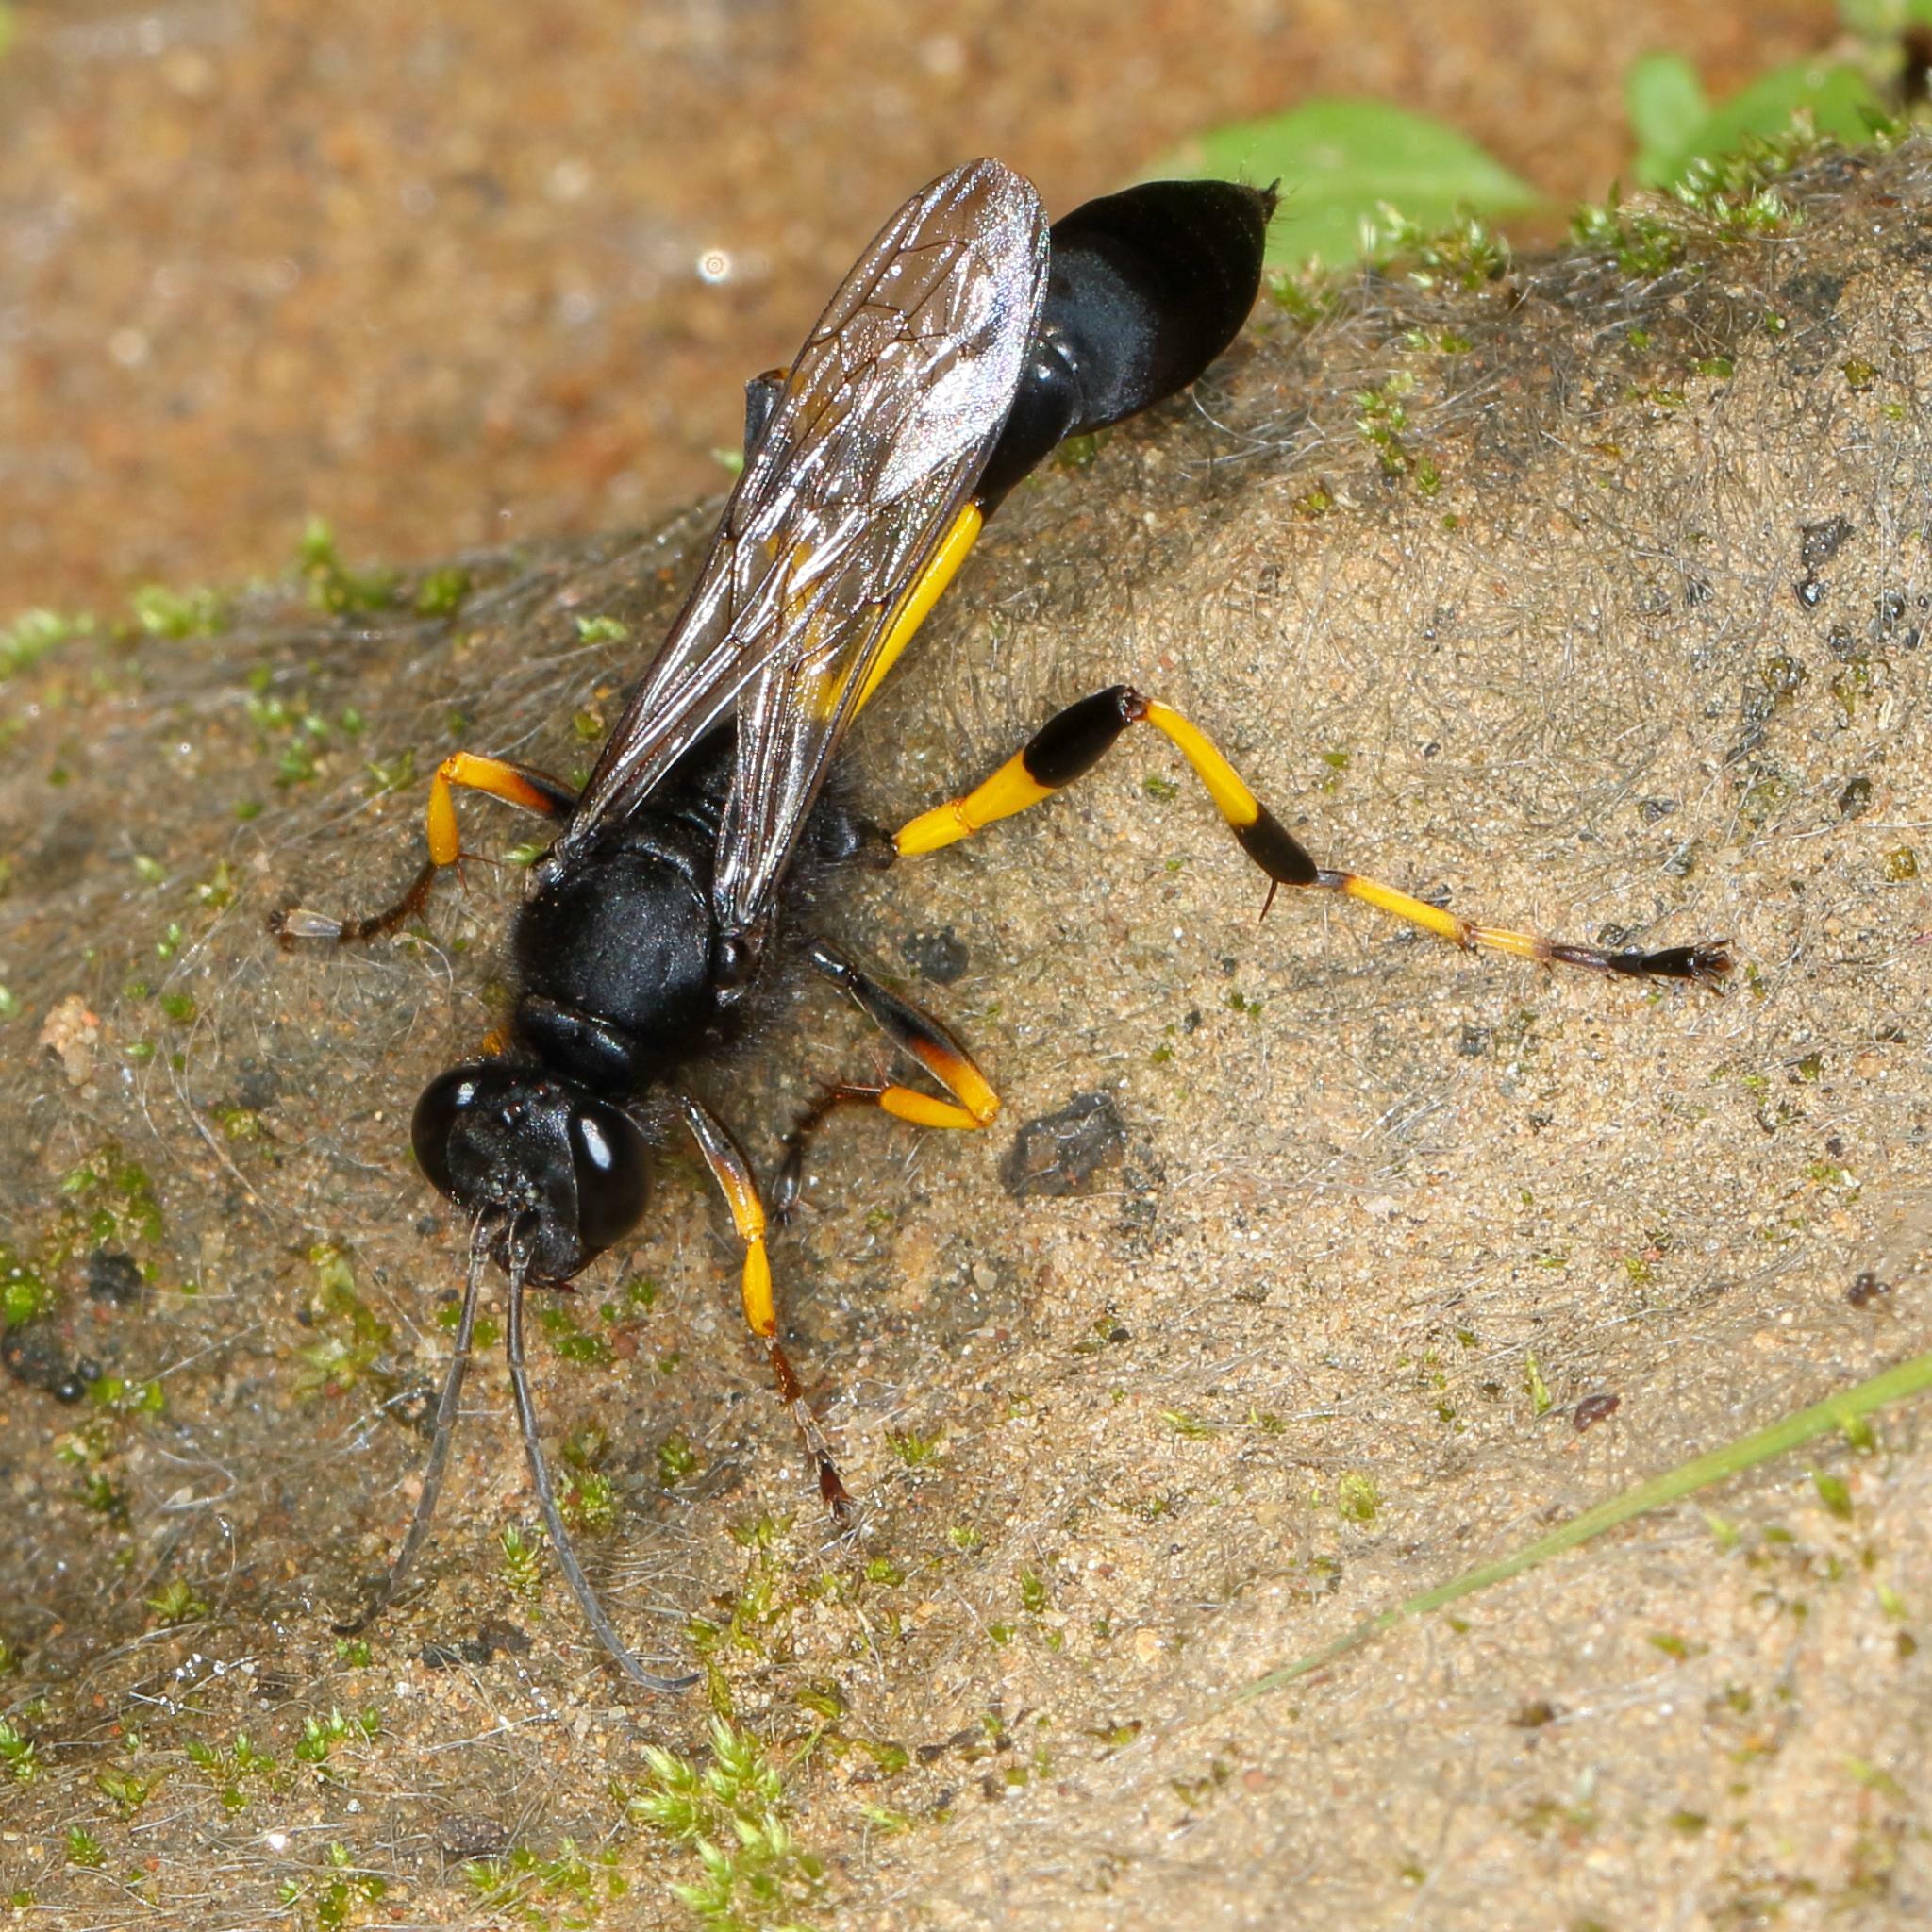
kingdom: Animalia
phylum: Arthropoda
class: Insecta
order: Hymenoptera
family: Sphecidae
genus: Sceliphron
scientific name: Sceliphron spirifex
